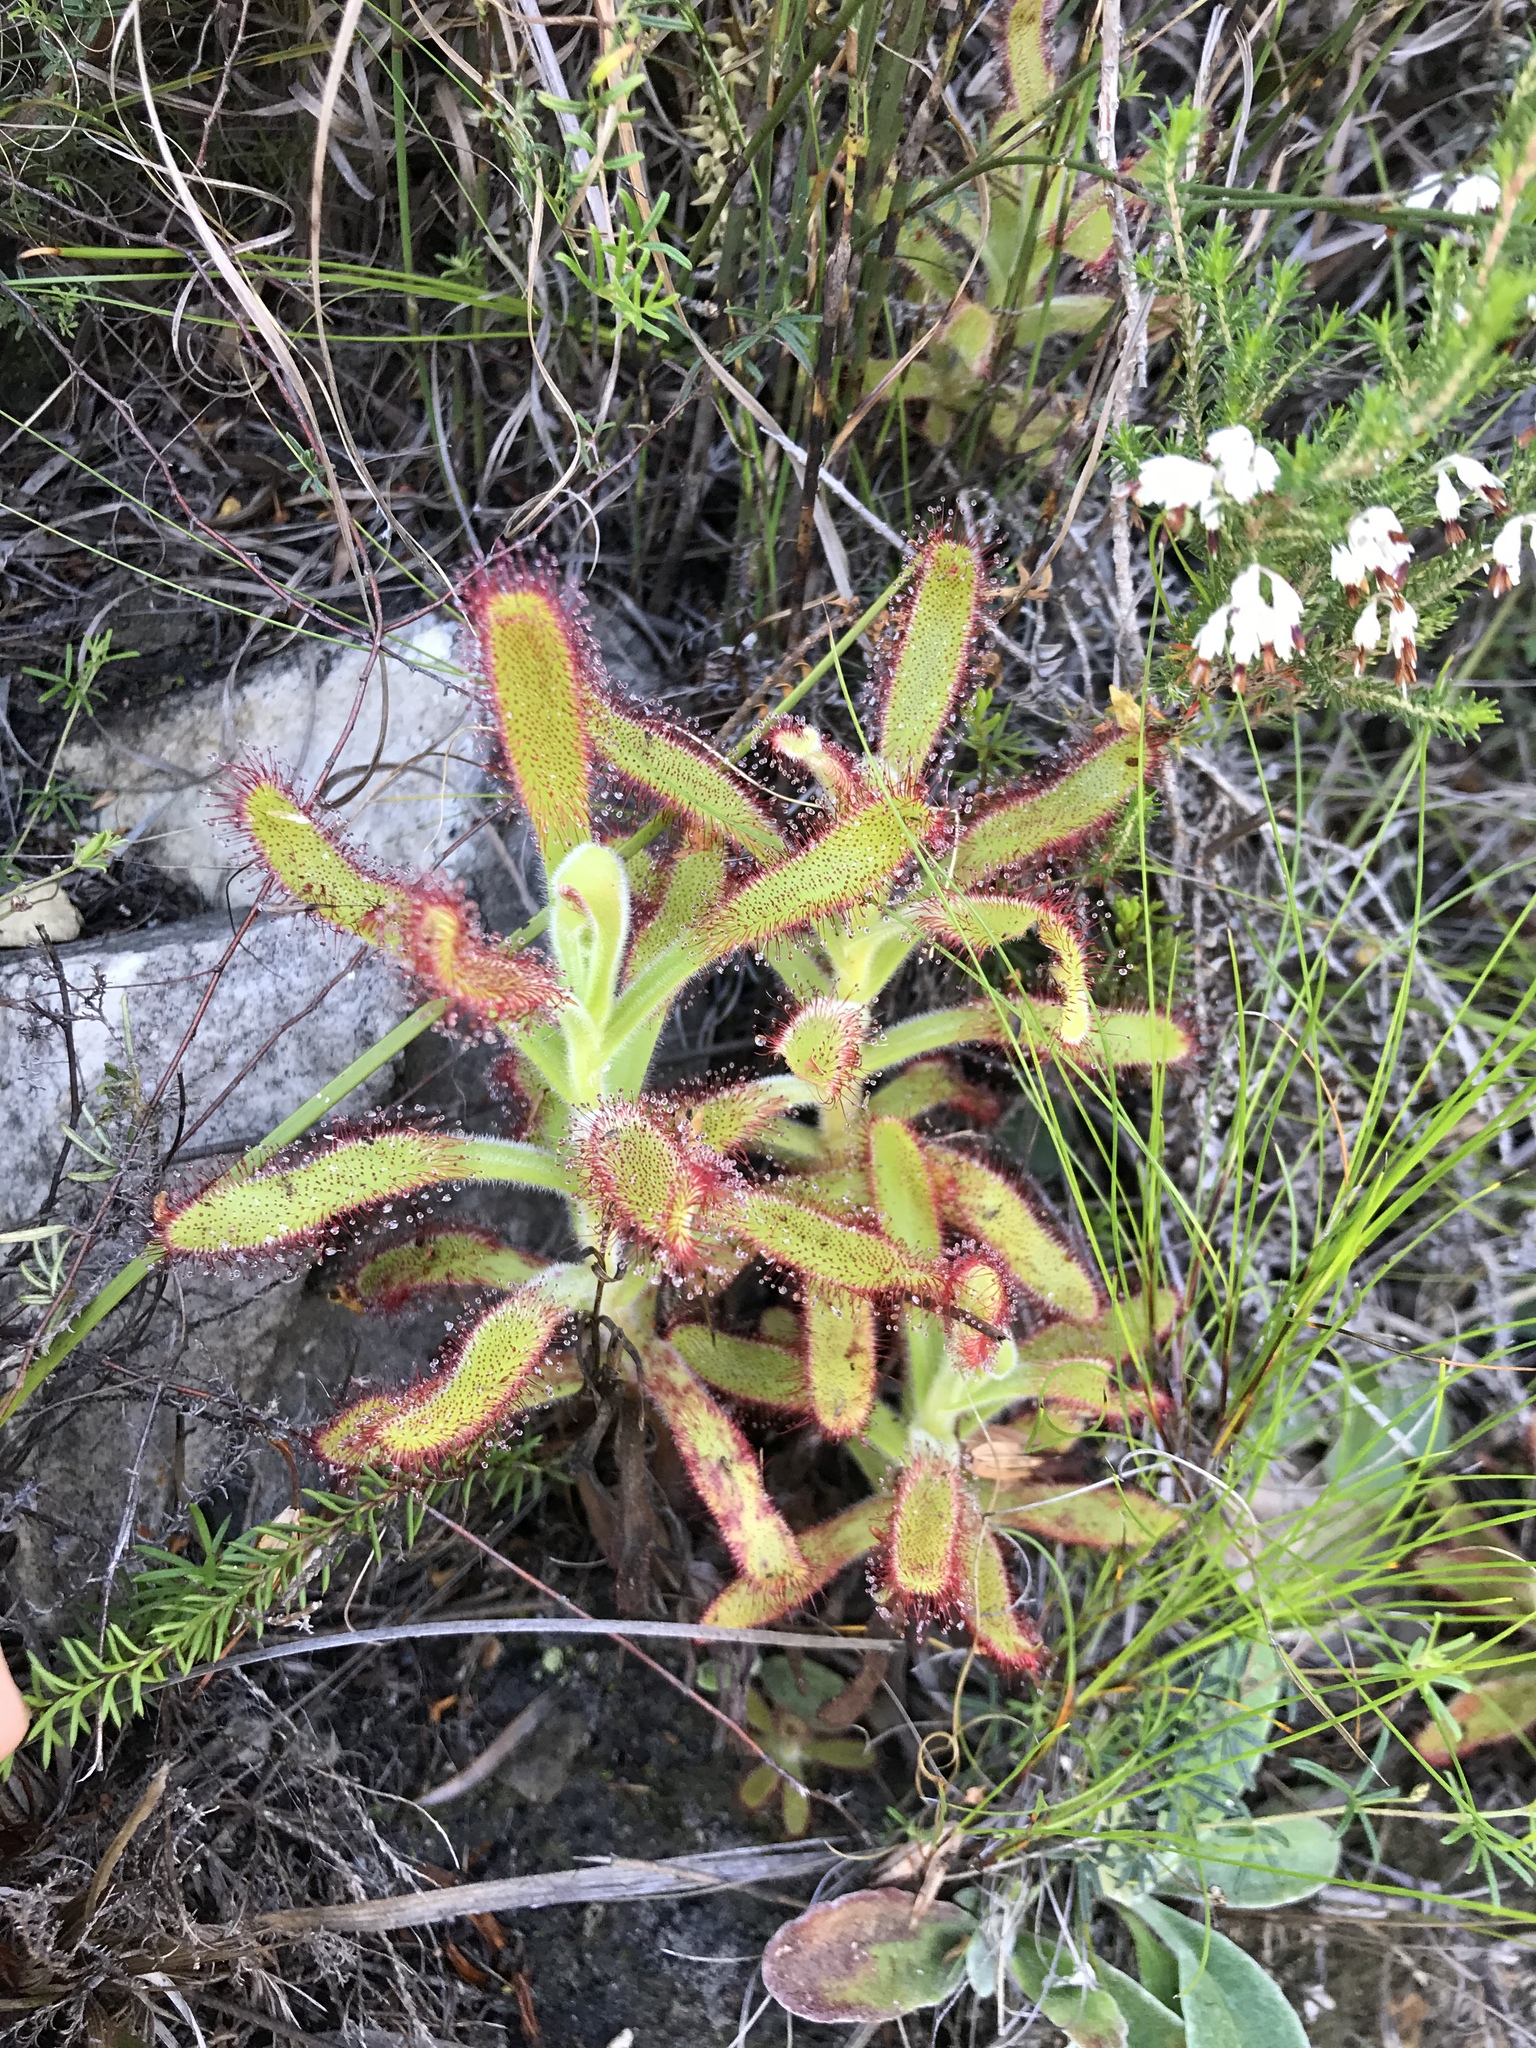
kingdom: Plantae
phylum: Tracheophyta
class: Magnoliopsida
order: Caryophyllales
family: Droseraceae
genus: Drosera
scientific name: Drosera hilaris
